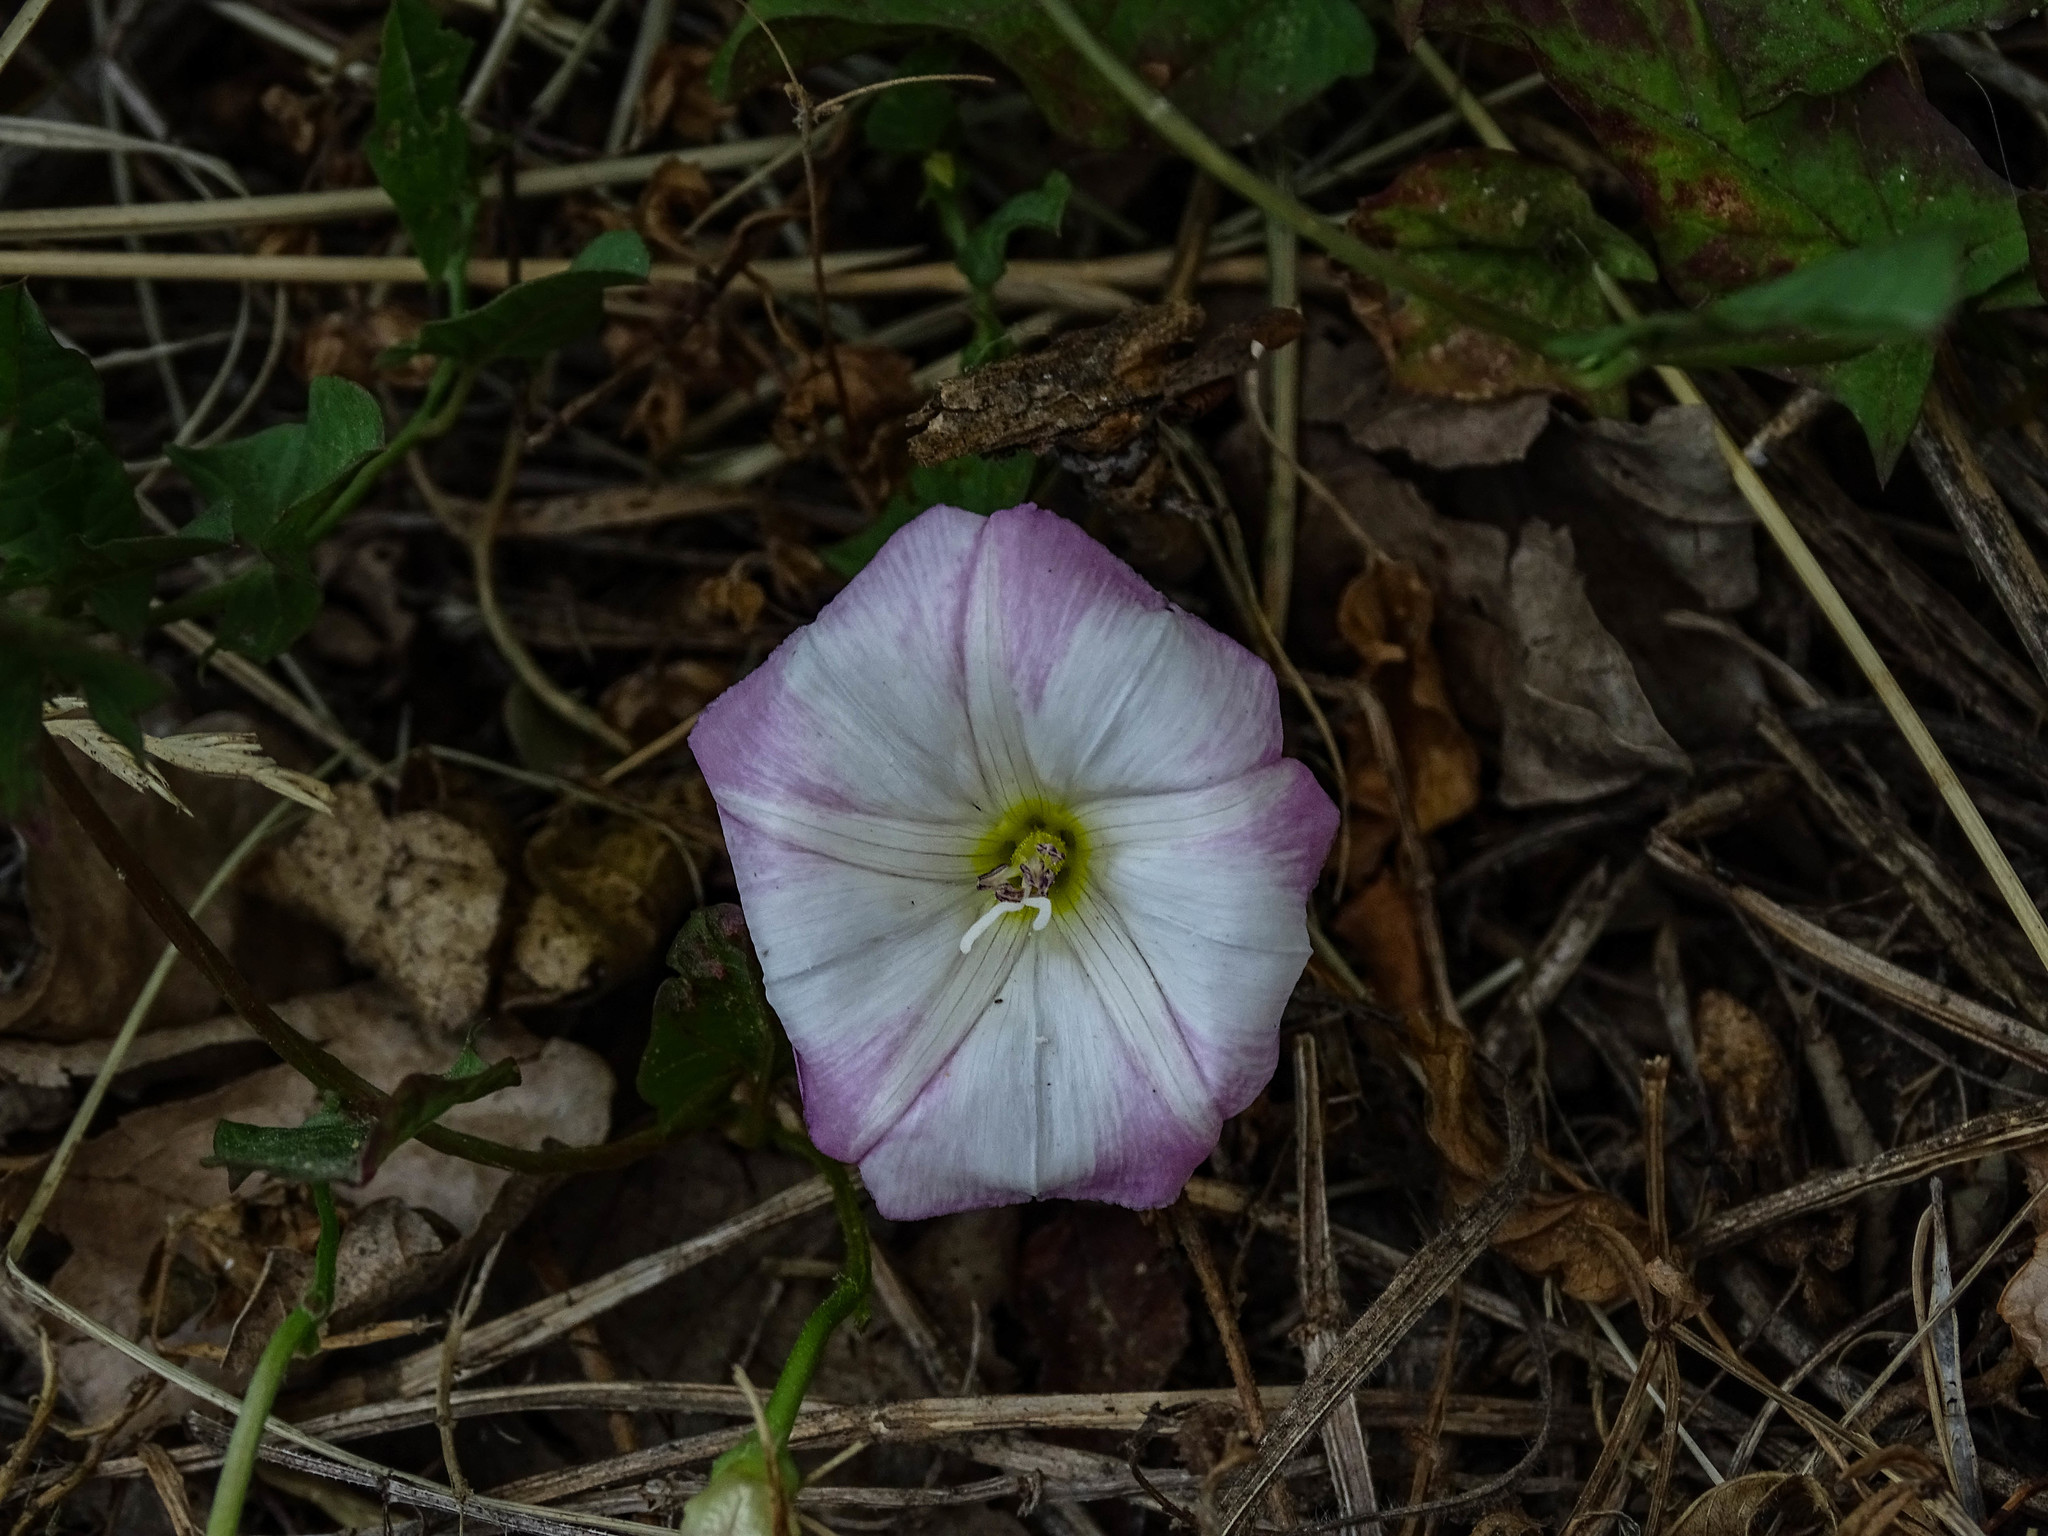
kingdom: Plantae
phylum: Tracheophyta
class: Magnoliopsida
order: Solanales
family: Convolvulaceae
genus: Convolvulus
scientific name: Convolvulus arvensis
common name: Field bindweed
